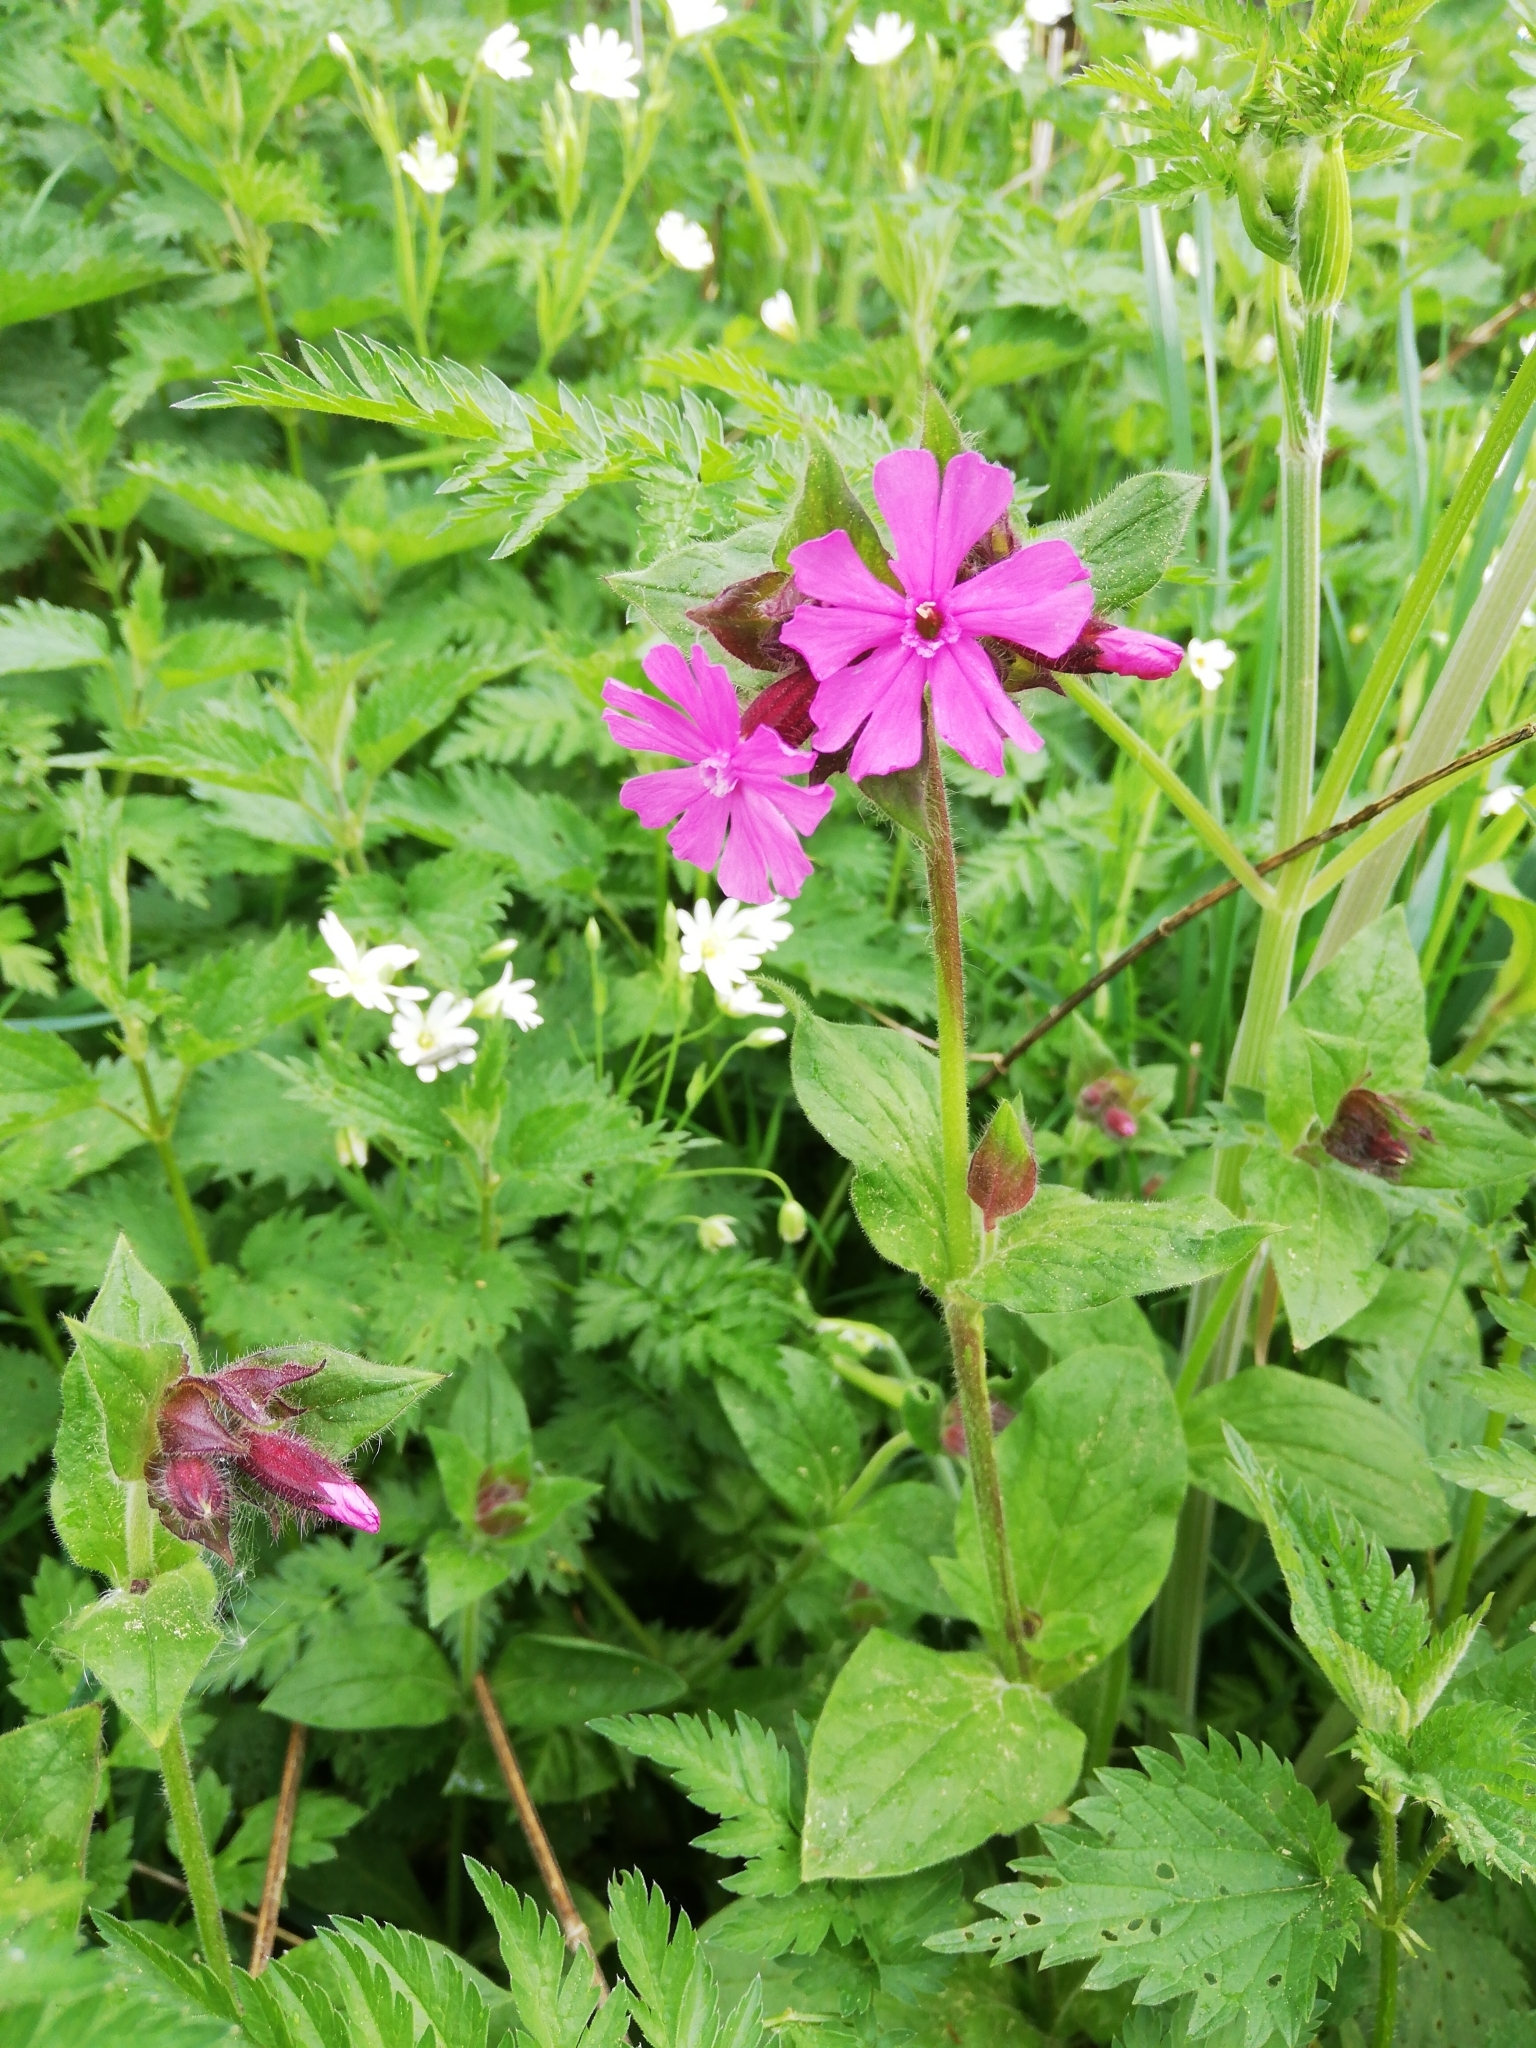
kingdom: Plantae
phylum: Tracheophyta
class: Magnoliopsida
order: Caryophyllales
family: Caryophyllaceae
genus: Silene
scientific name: Silene dioica
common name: Red campion
